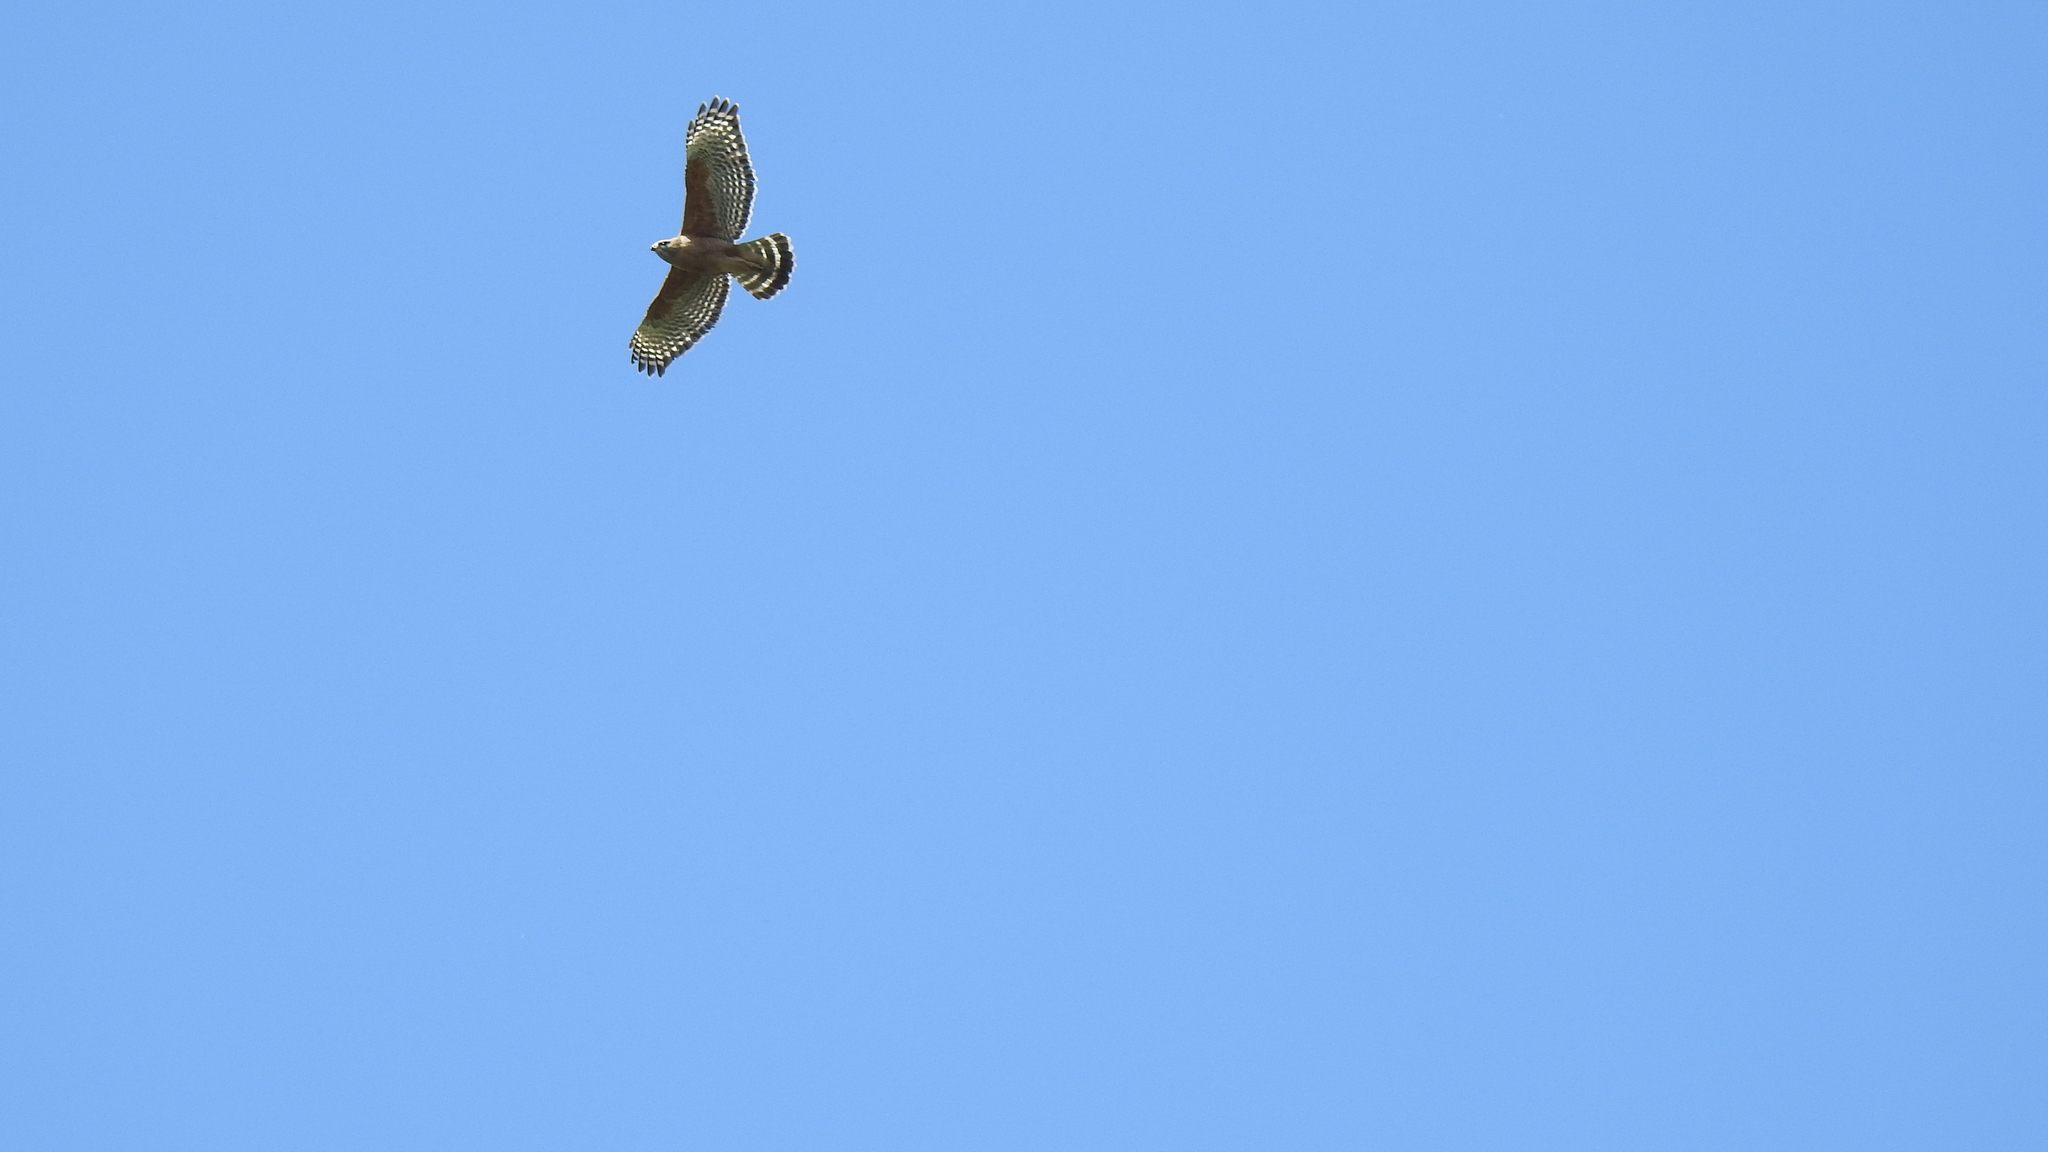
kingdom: Animalia
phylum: Chordata
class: Aves
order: Accipitriformes
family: Accipitridae
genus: Buteo
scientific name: Buteo lineatus
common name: Red-shouldered hawk
